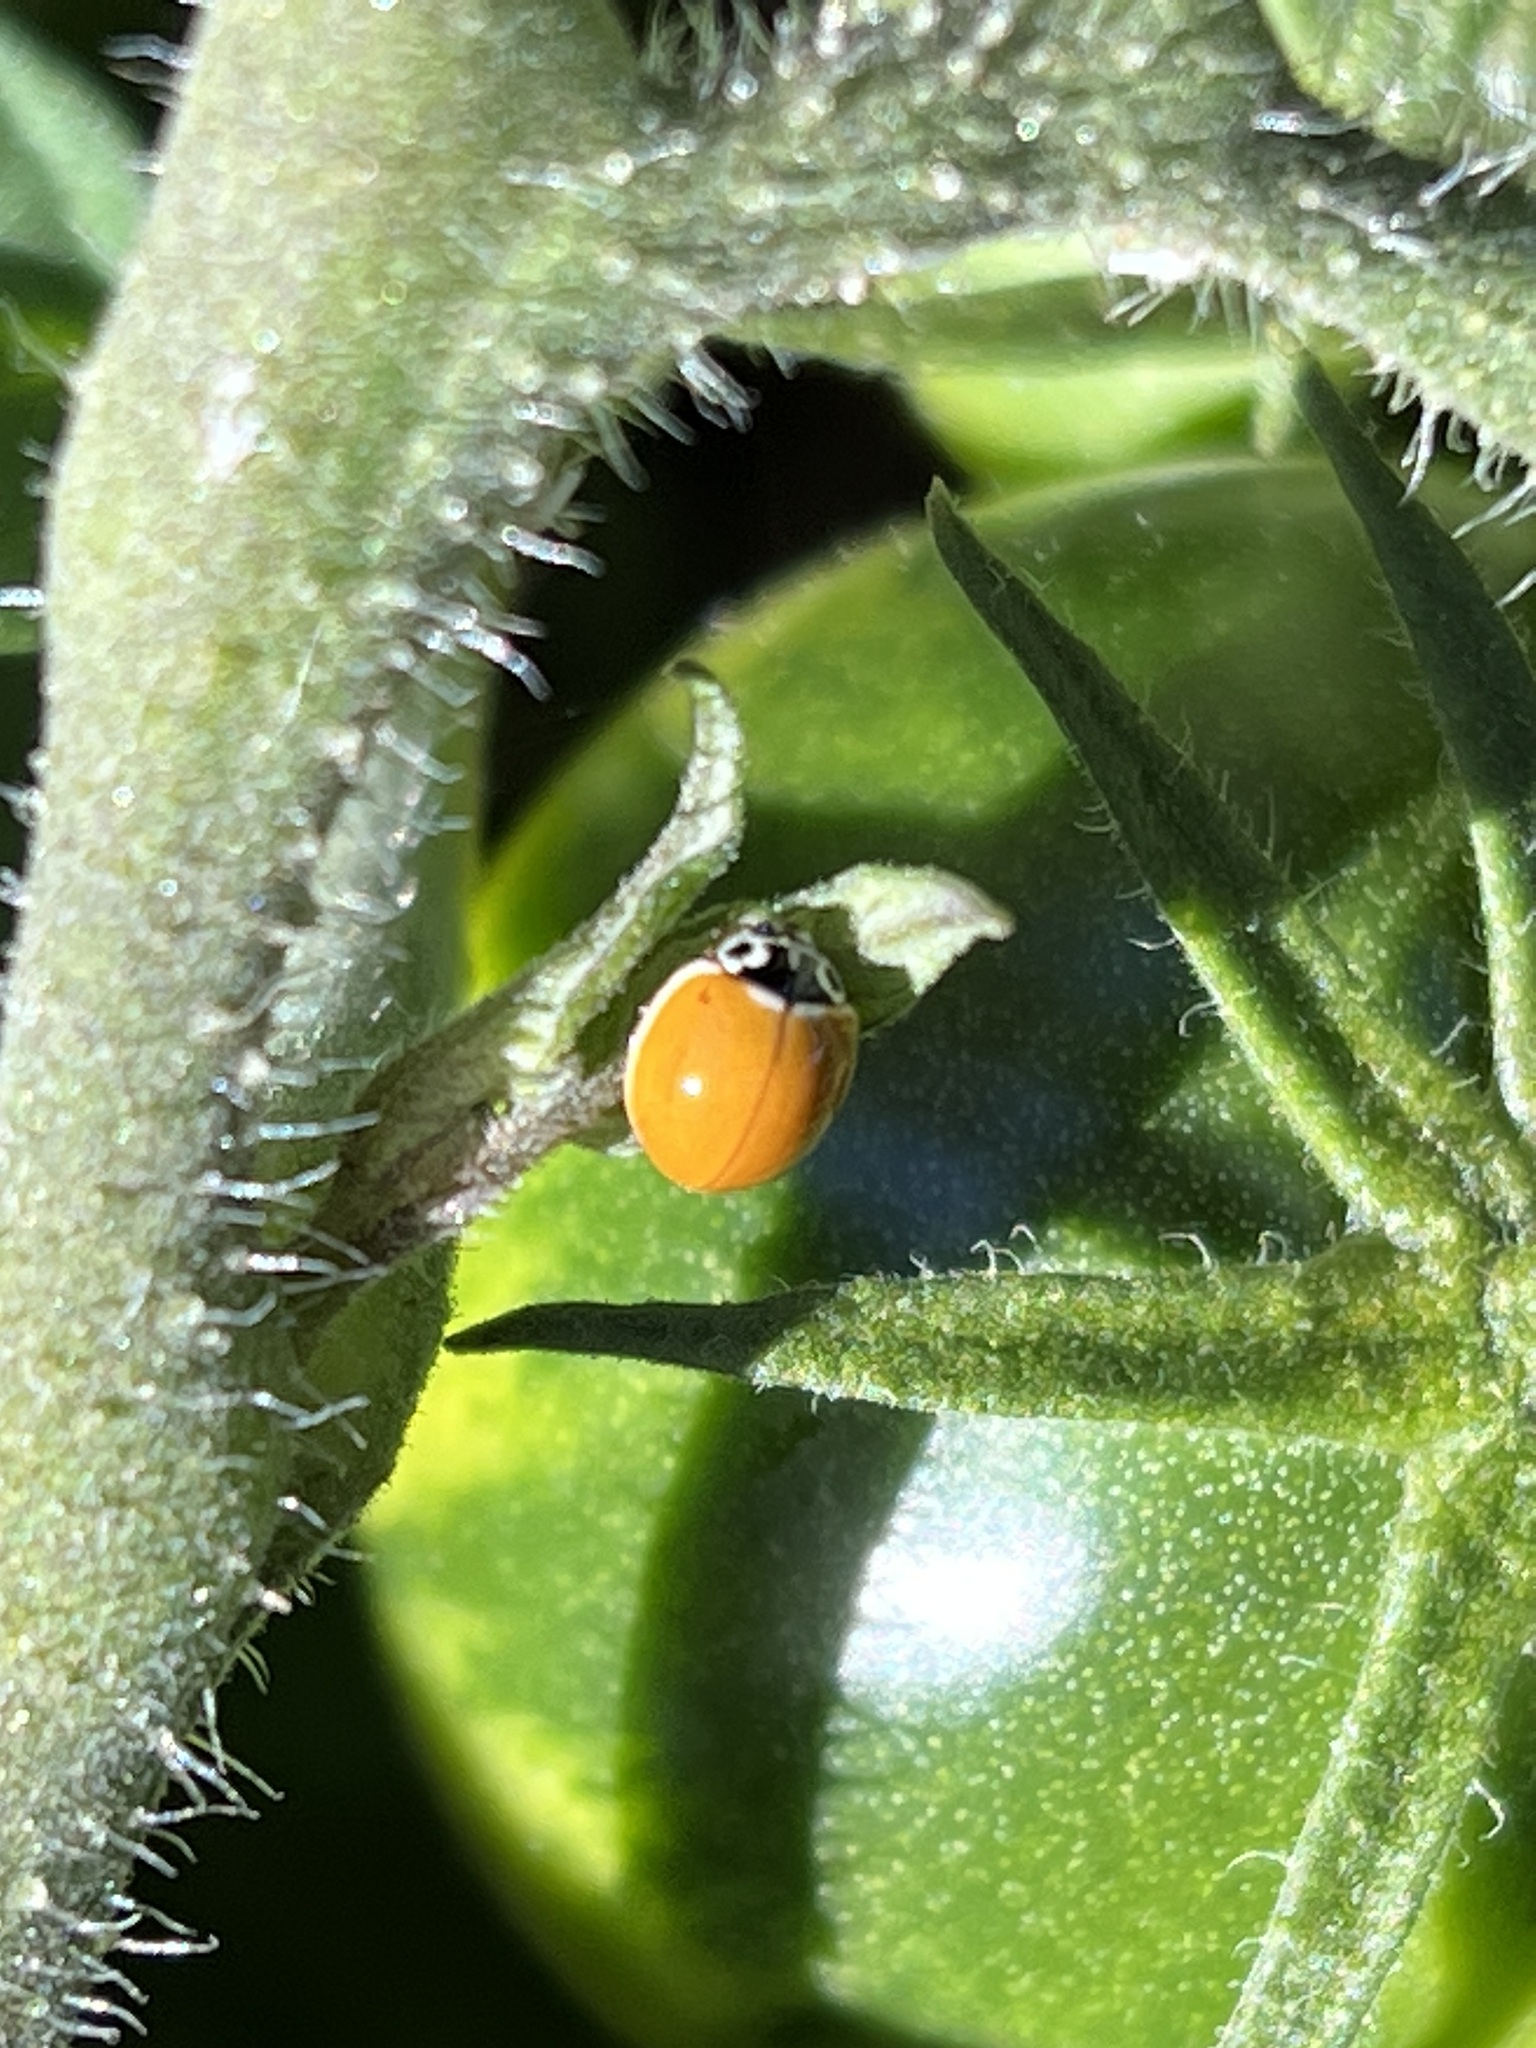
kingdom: Animalia
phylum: Arthropoda
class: Insecta
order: Coleoptera
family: Coccinellidae
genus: Cycloneda
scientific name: Cycloneda polita
